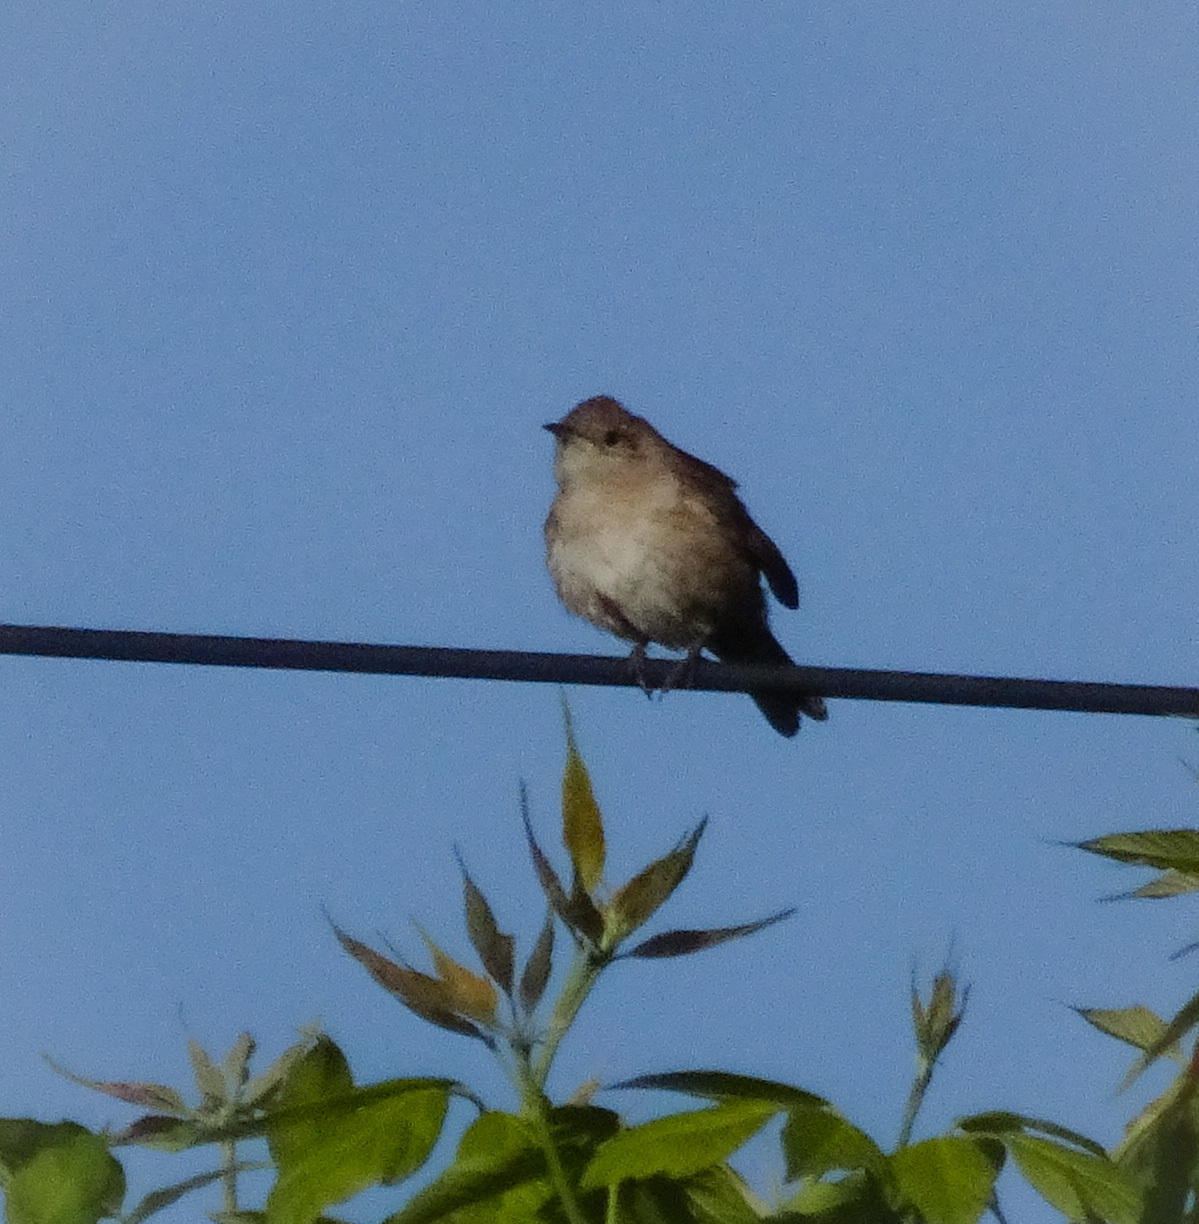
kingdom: Animalia
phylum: Chordata
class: Aves
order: Passeriformes
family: Troglodytidae
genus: Troglodytes
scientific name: Troglodytes aedon
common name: House wren
